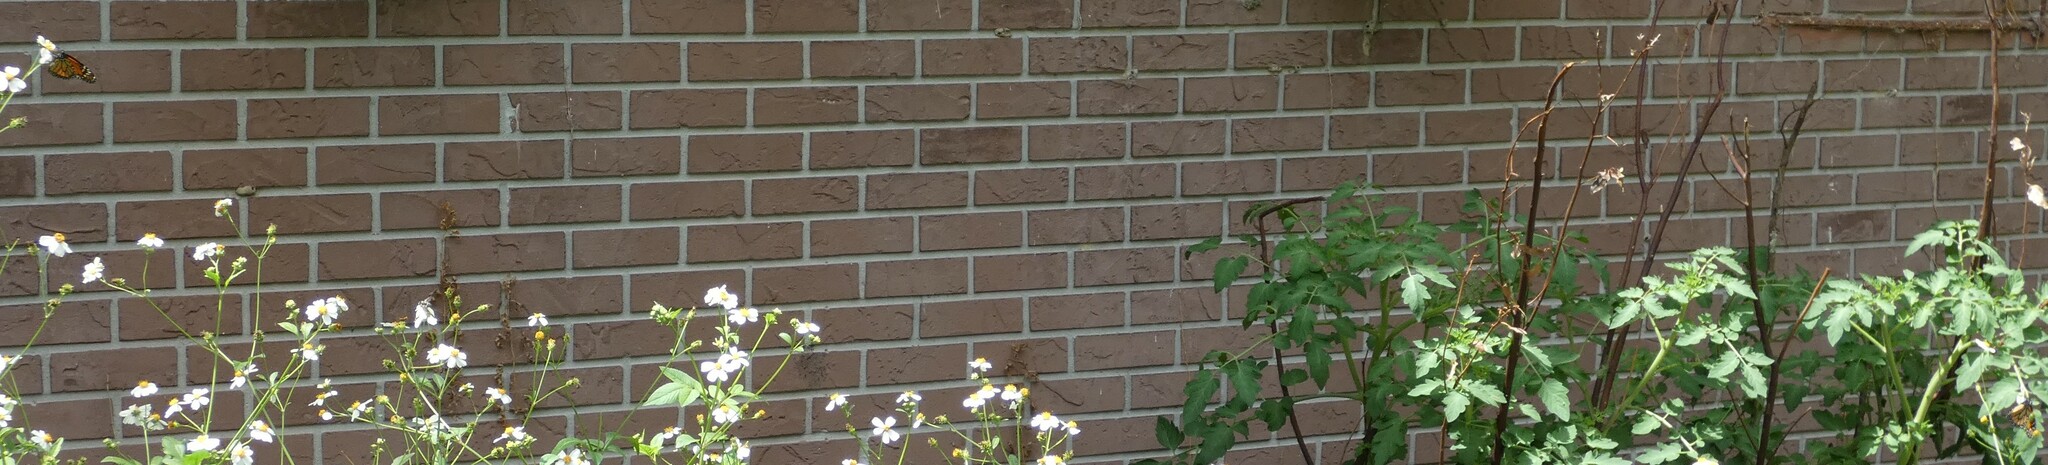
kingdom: Animalia
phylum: Arthropoda
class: Insecta
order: Lepidoptera
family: Nymphalidae
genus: Danaus
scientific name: Danaus plexippus
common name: Monarch
